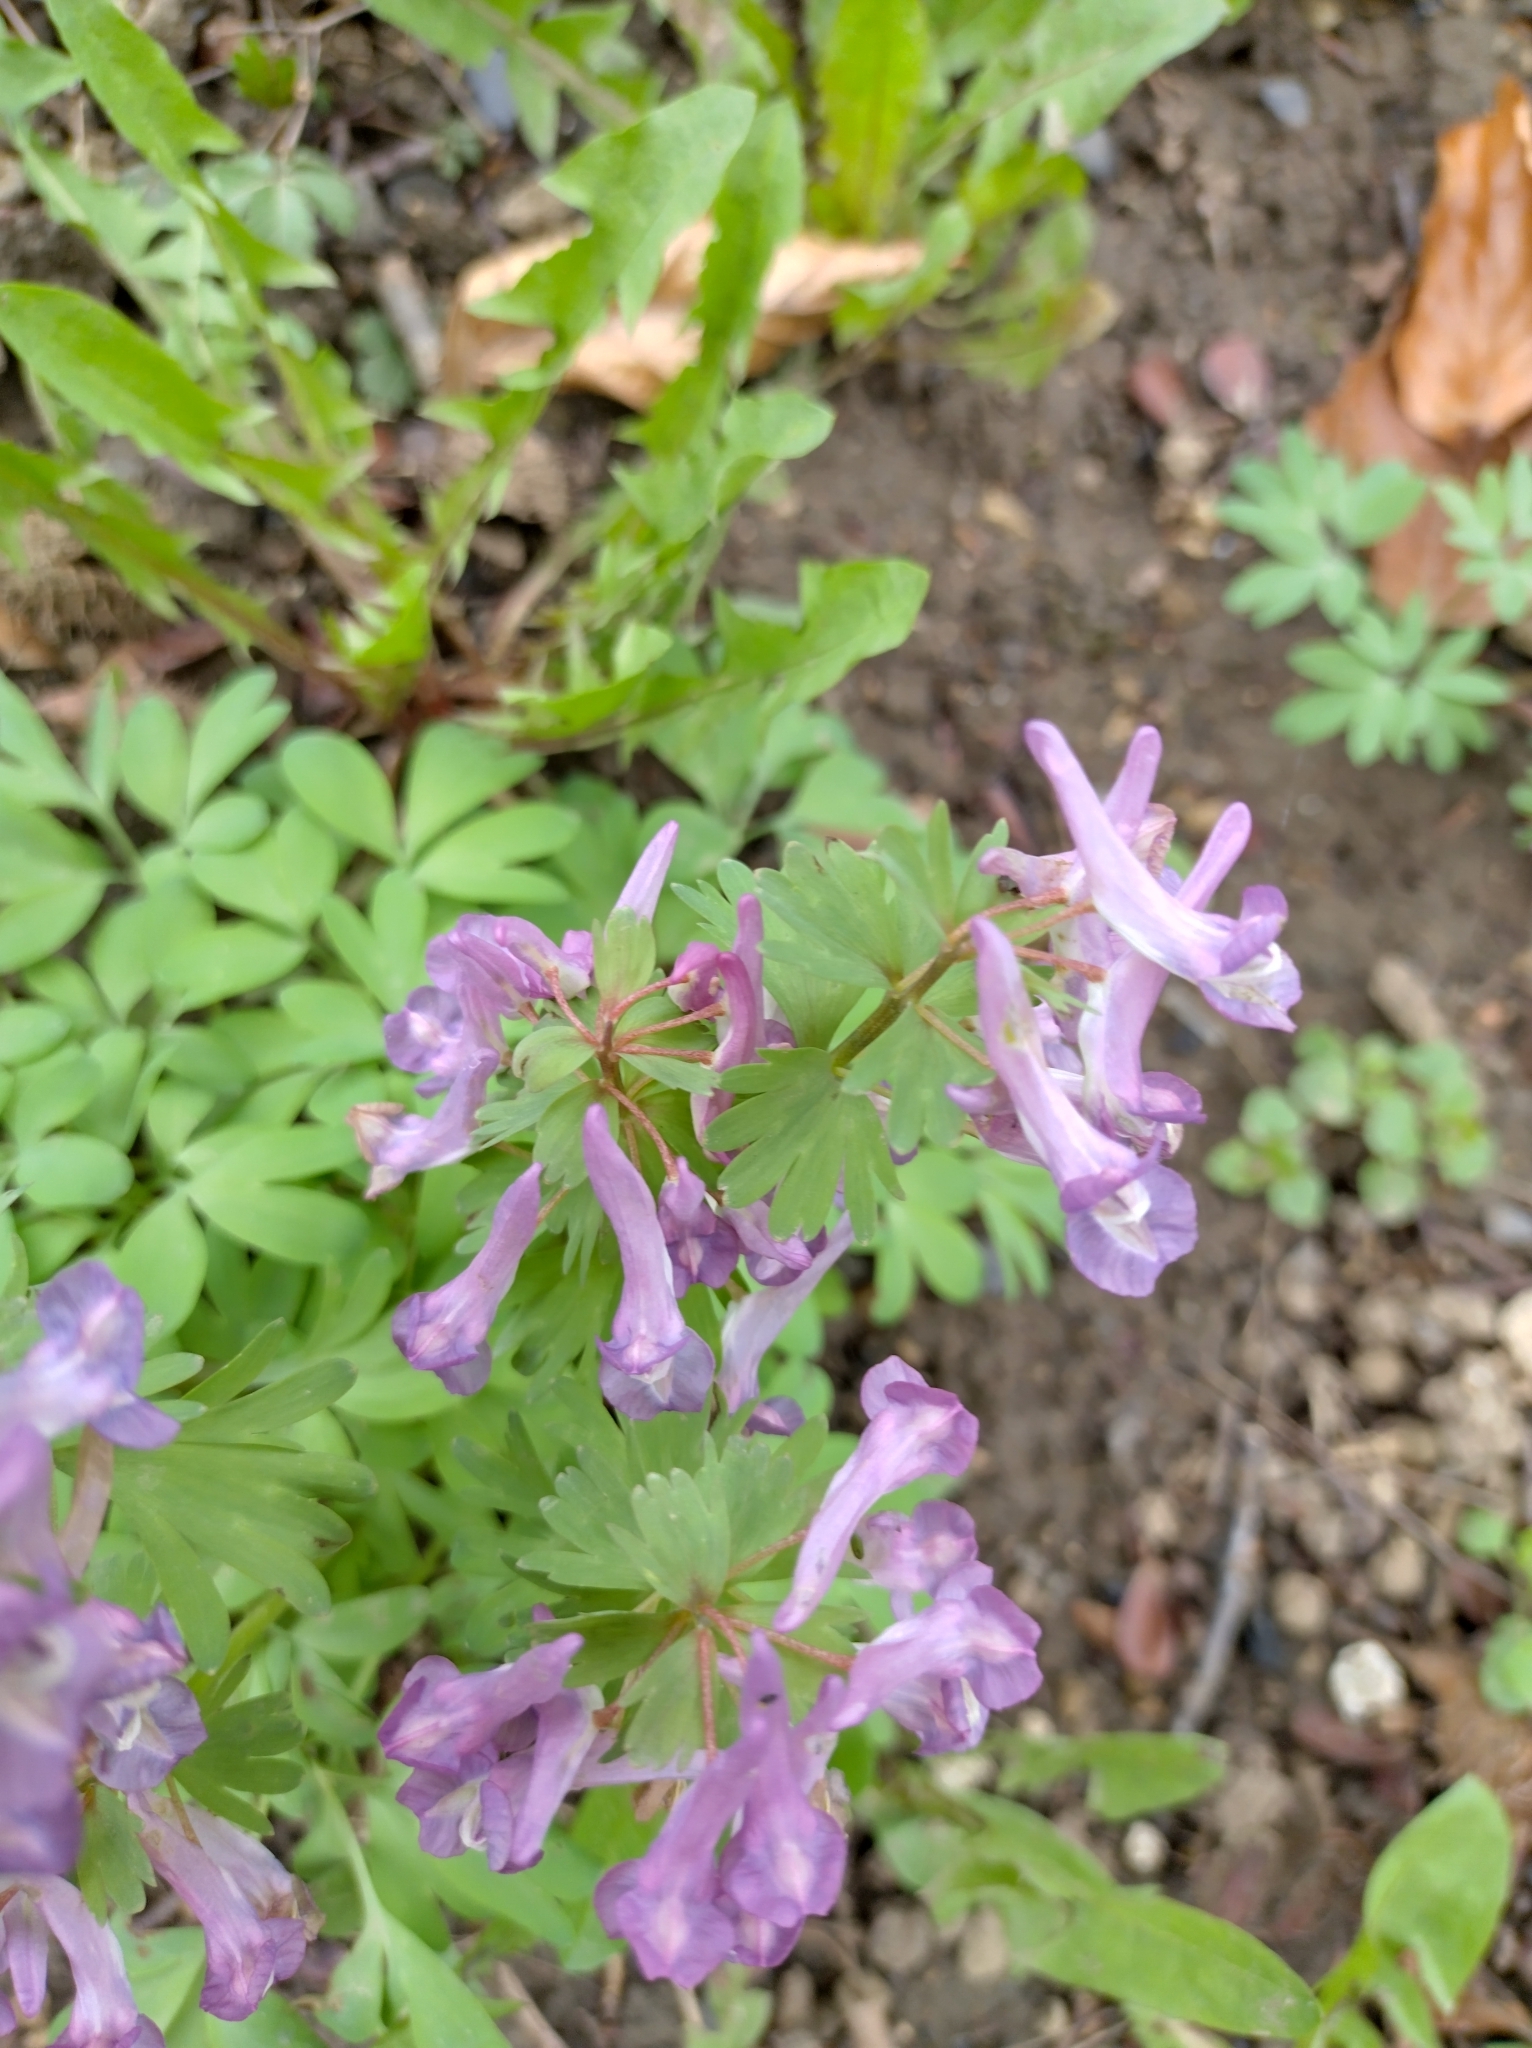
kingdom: Plantae
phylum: Tracheophyta
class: Magnoliopsida
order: Ranunculales
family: Papaveraceae
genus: Corydalis
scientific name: Corydalis solida
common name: Bird-in-a-bush
